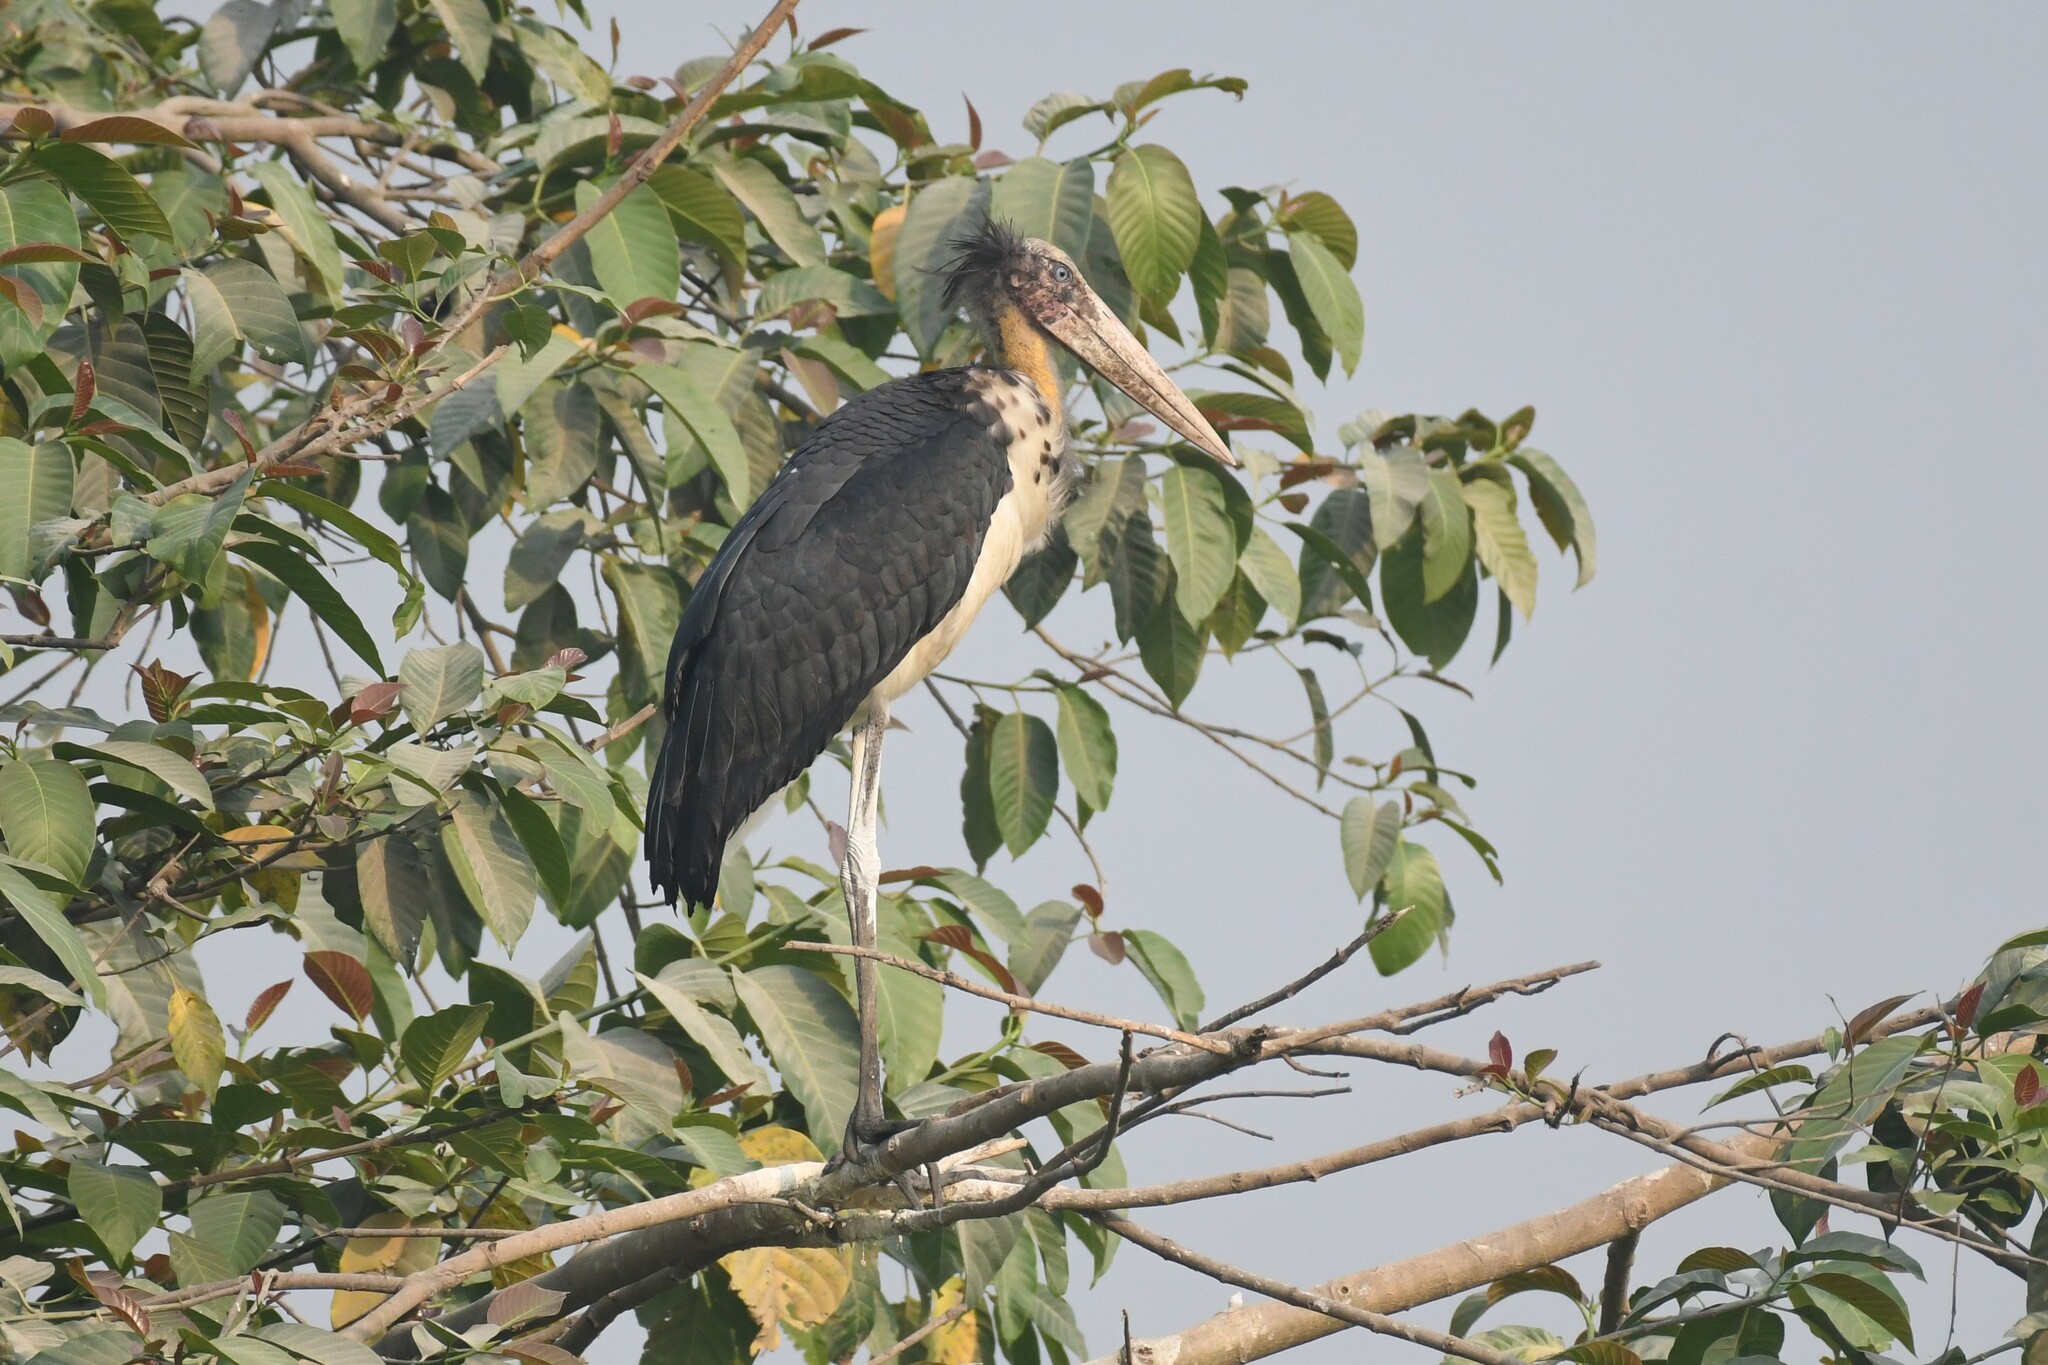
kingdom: Animalia
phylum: Chordata
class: Aves
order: Ciconiiformes
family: Ciconiidae
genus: Leptoptilos
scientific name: Leptoptilos javanicus
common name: Lesser adjutant
